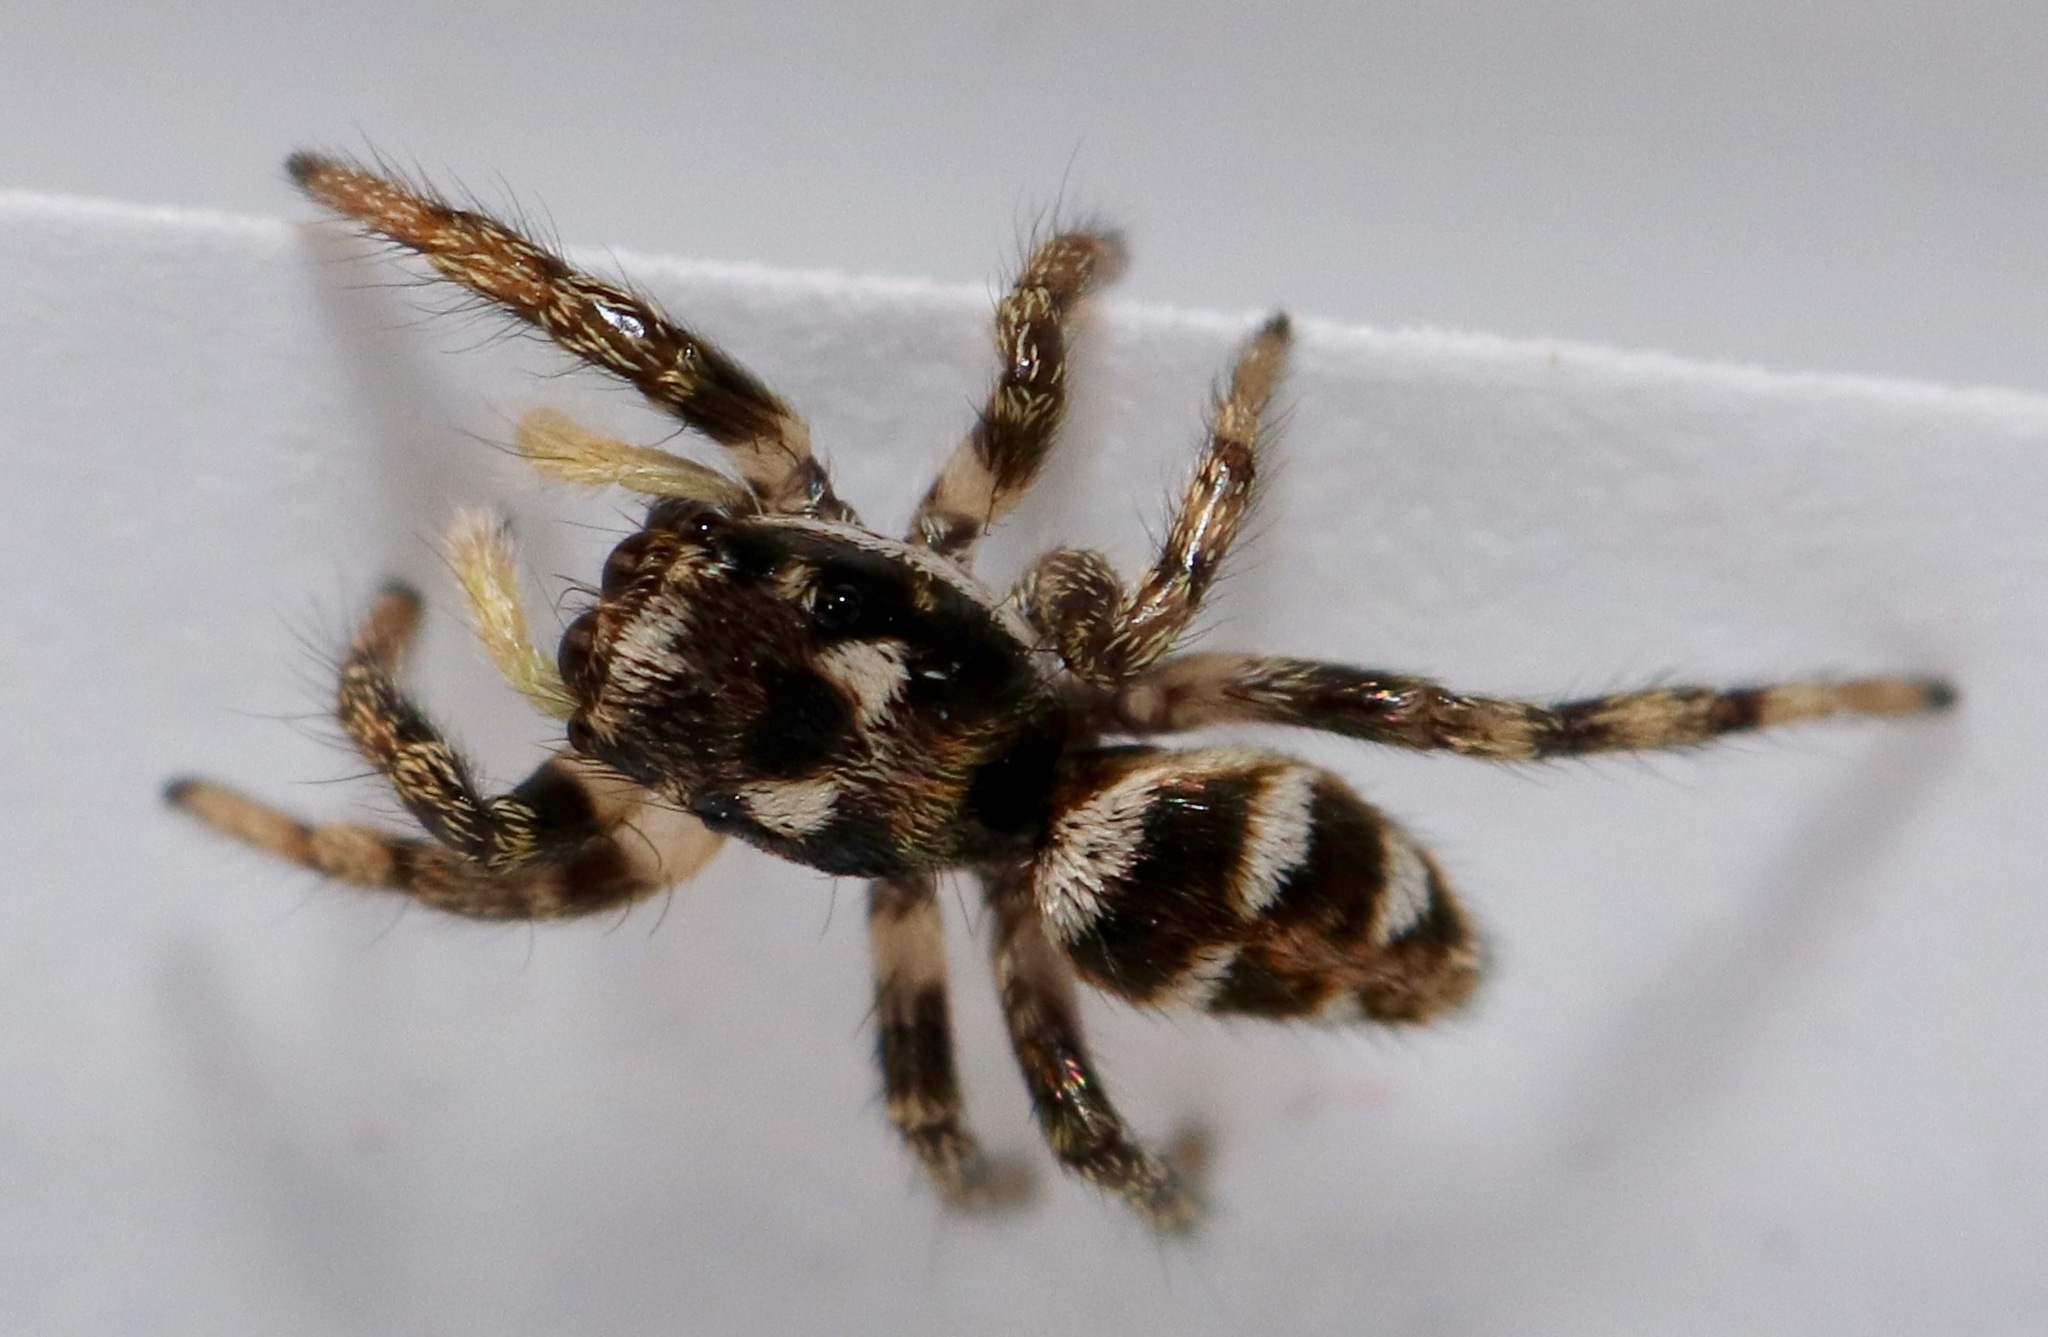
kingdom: Animalia
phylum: Arthropoda
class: Arachnida
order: Araneae
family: Salticidae
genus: Salticus
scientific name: Salticus scenicus
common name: Zebra jumper
